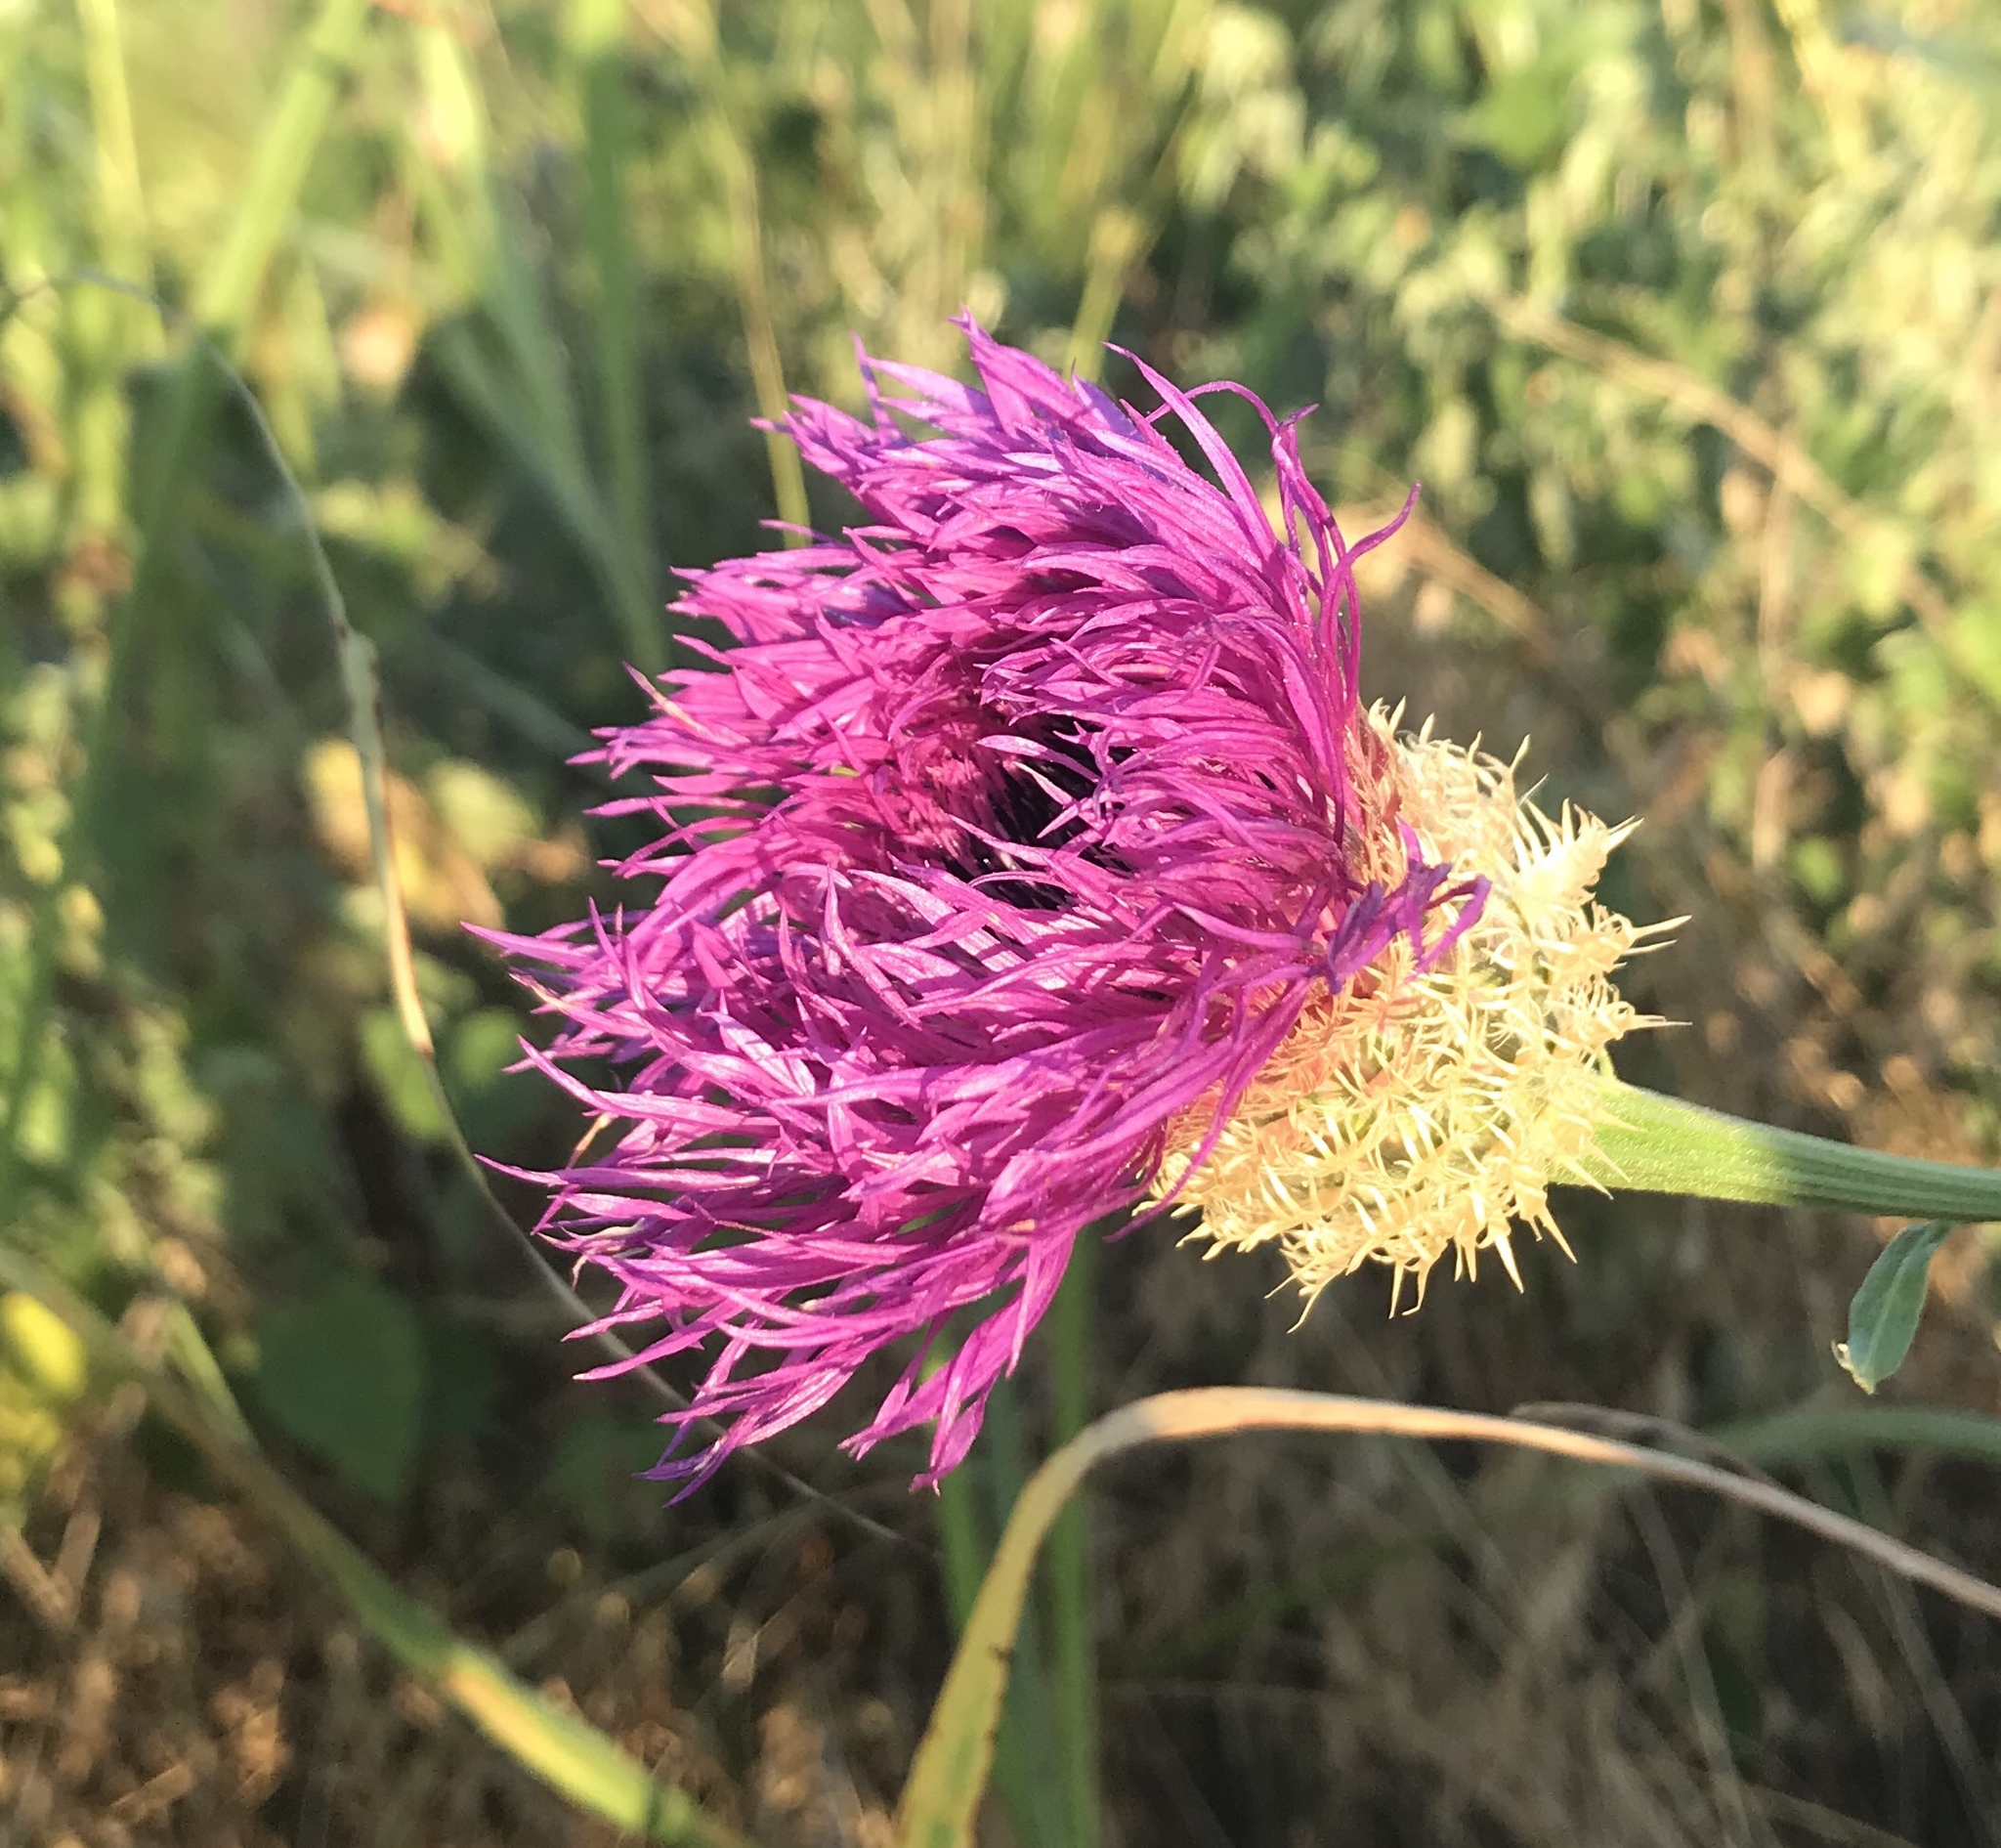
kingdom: Plantae
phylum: Tracheophyta
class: Magnoliopsida
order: Asterales
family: Asteraceae
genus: Plectocephalus
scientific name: Plectocephalus americanus
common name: American basket-flower
